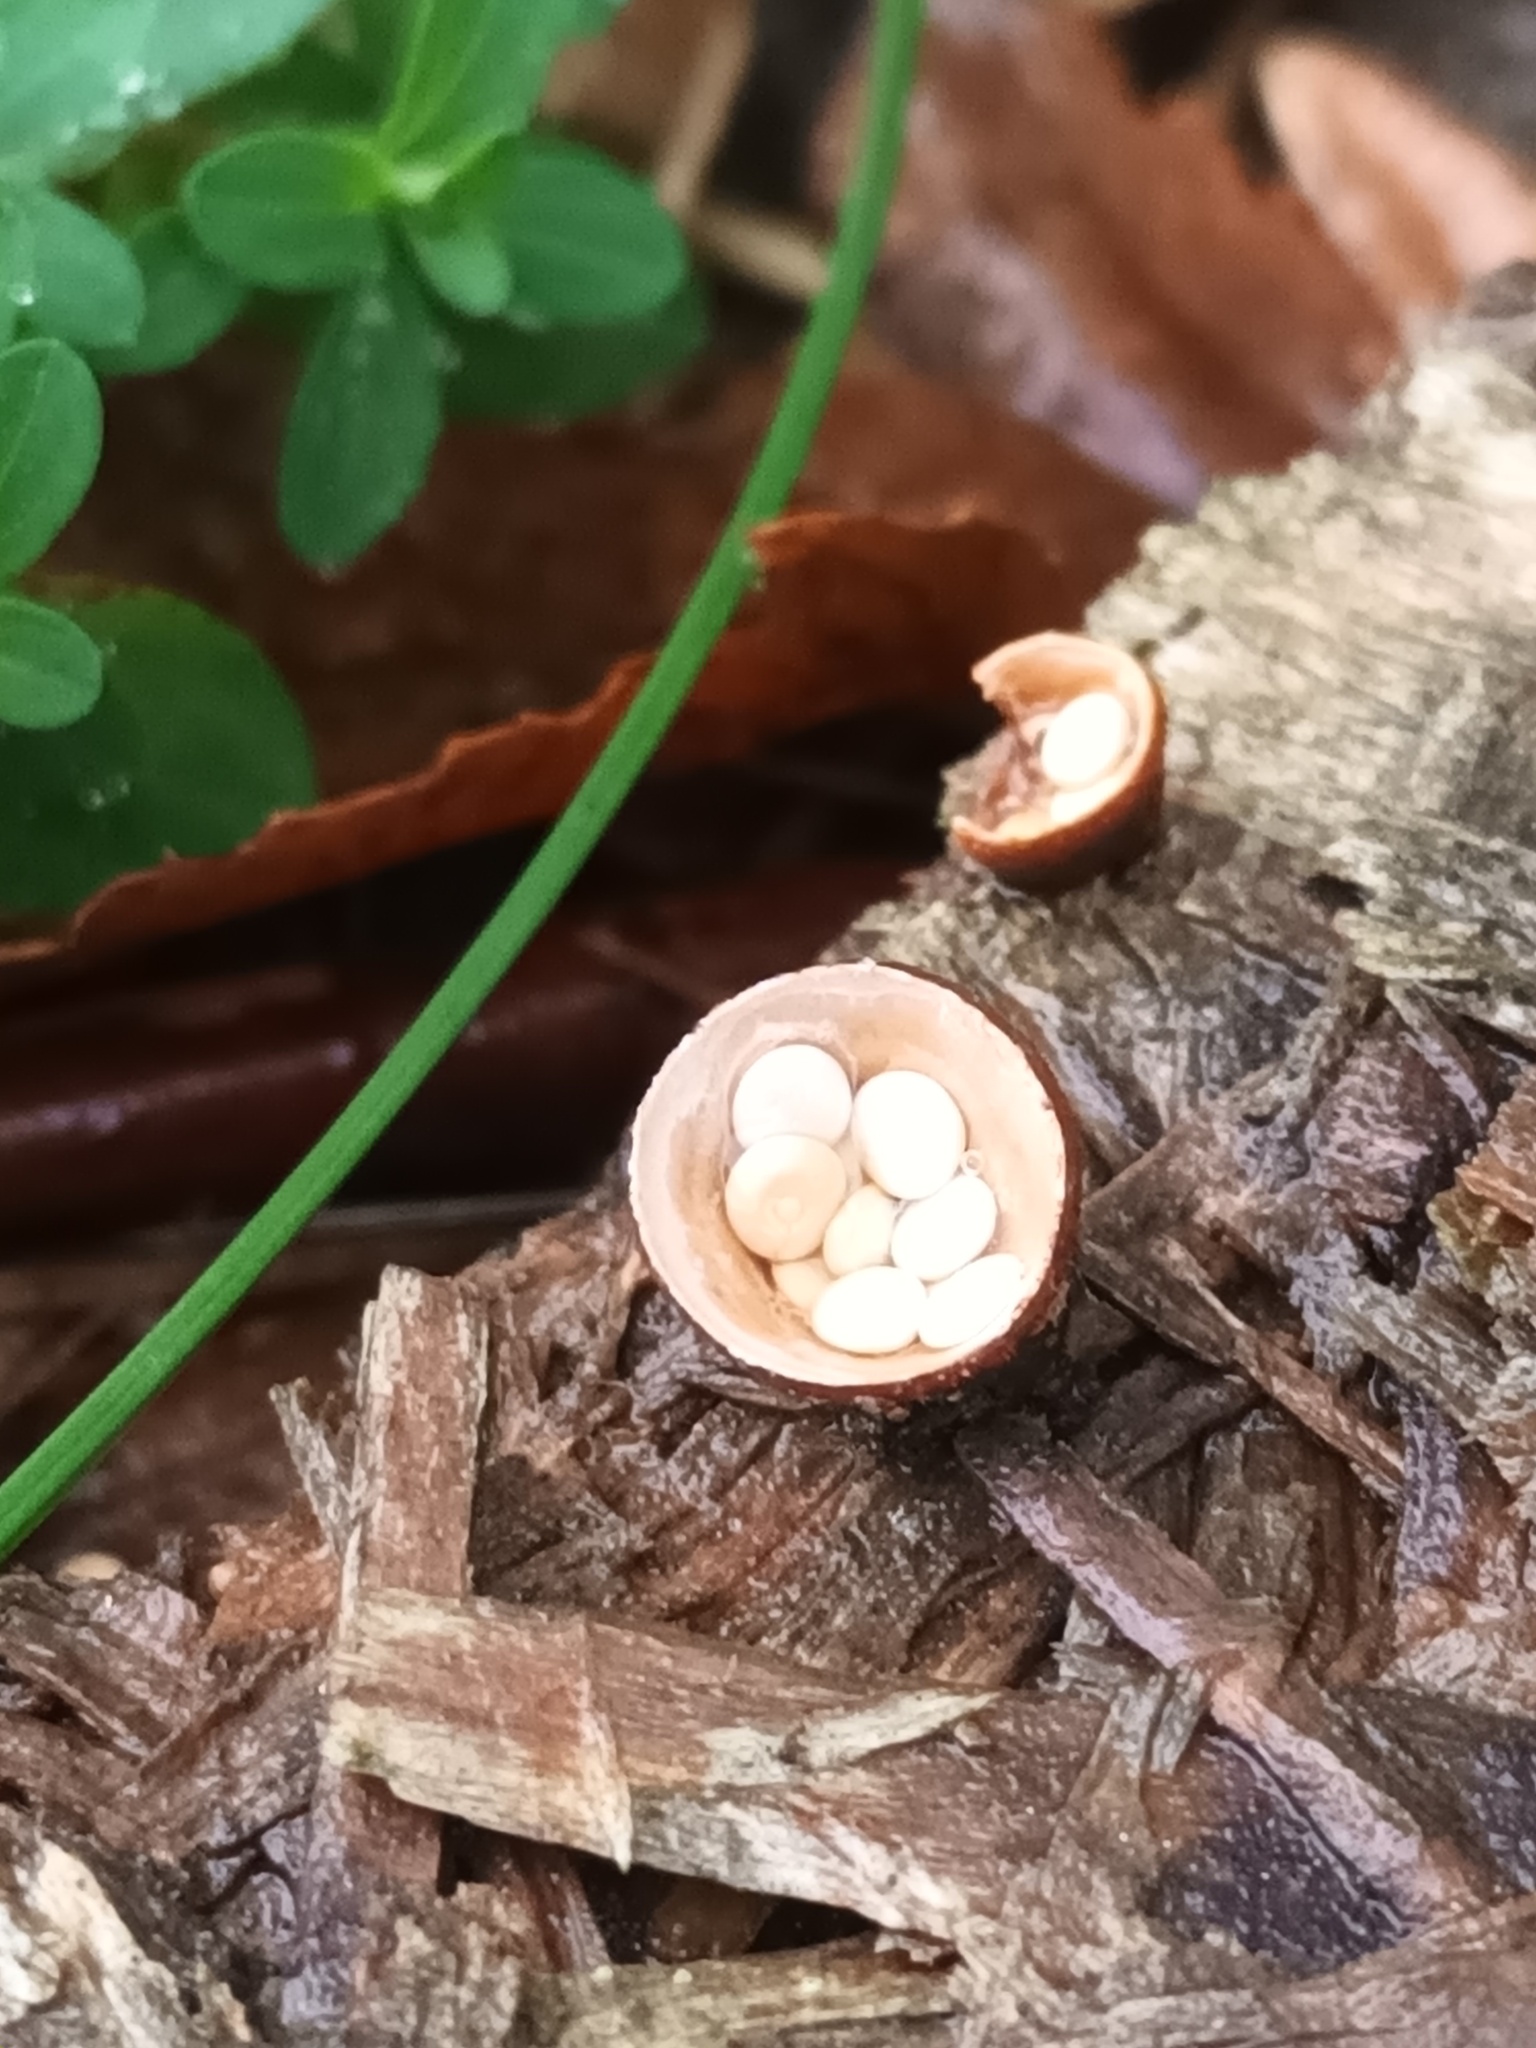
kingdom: Fungi
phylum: Basidiomycota
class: Agaricomycetes
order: Agaricales
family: Nidulariaceae
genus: Crucibulum
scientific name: Crucibulum laeve
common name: Common bird's nest
